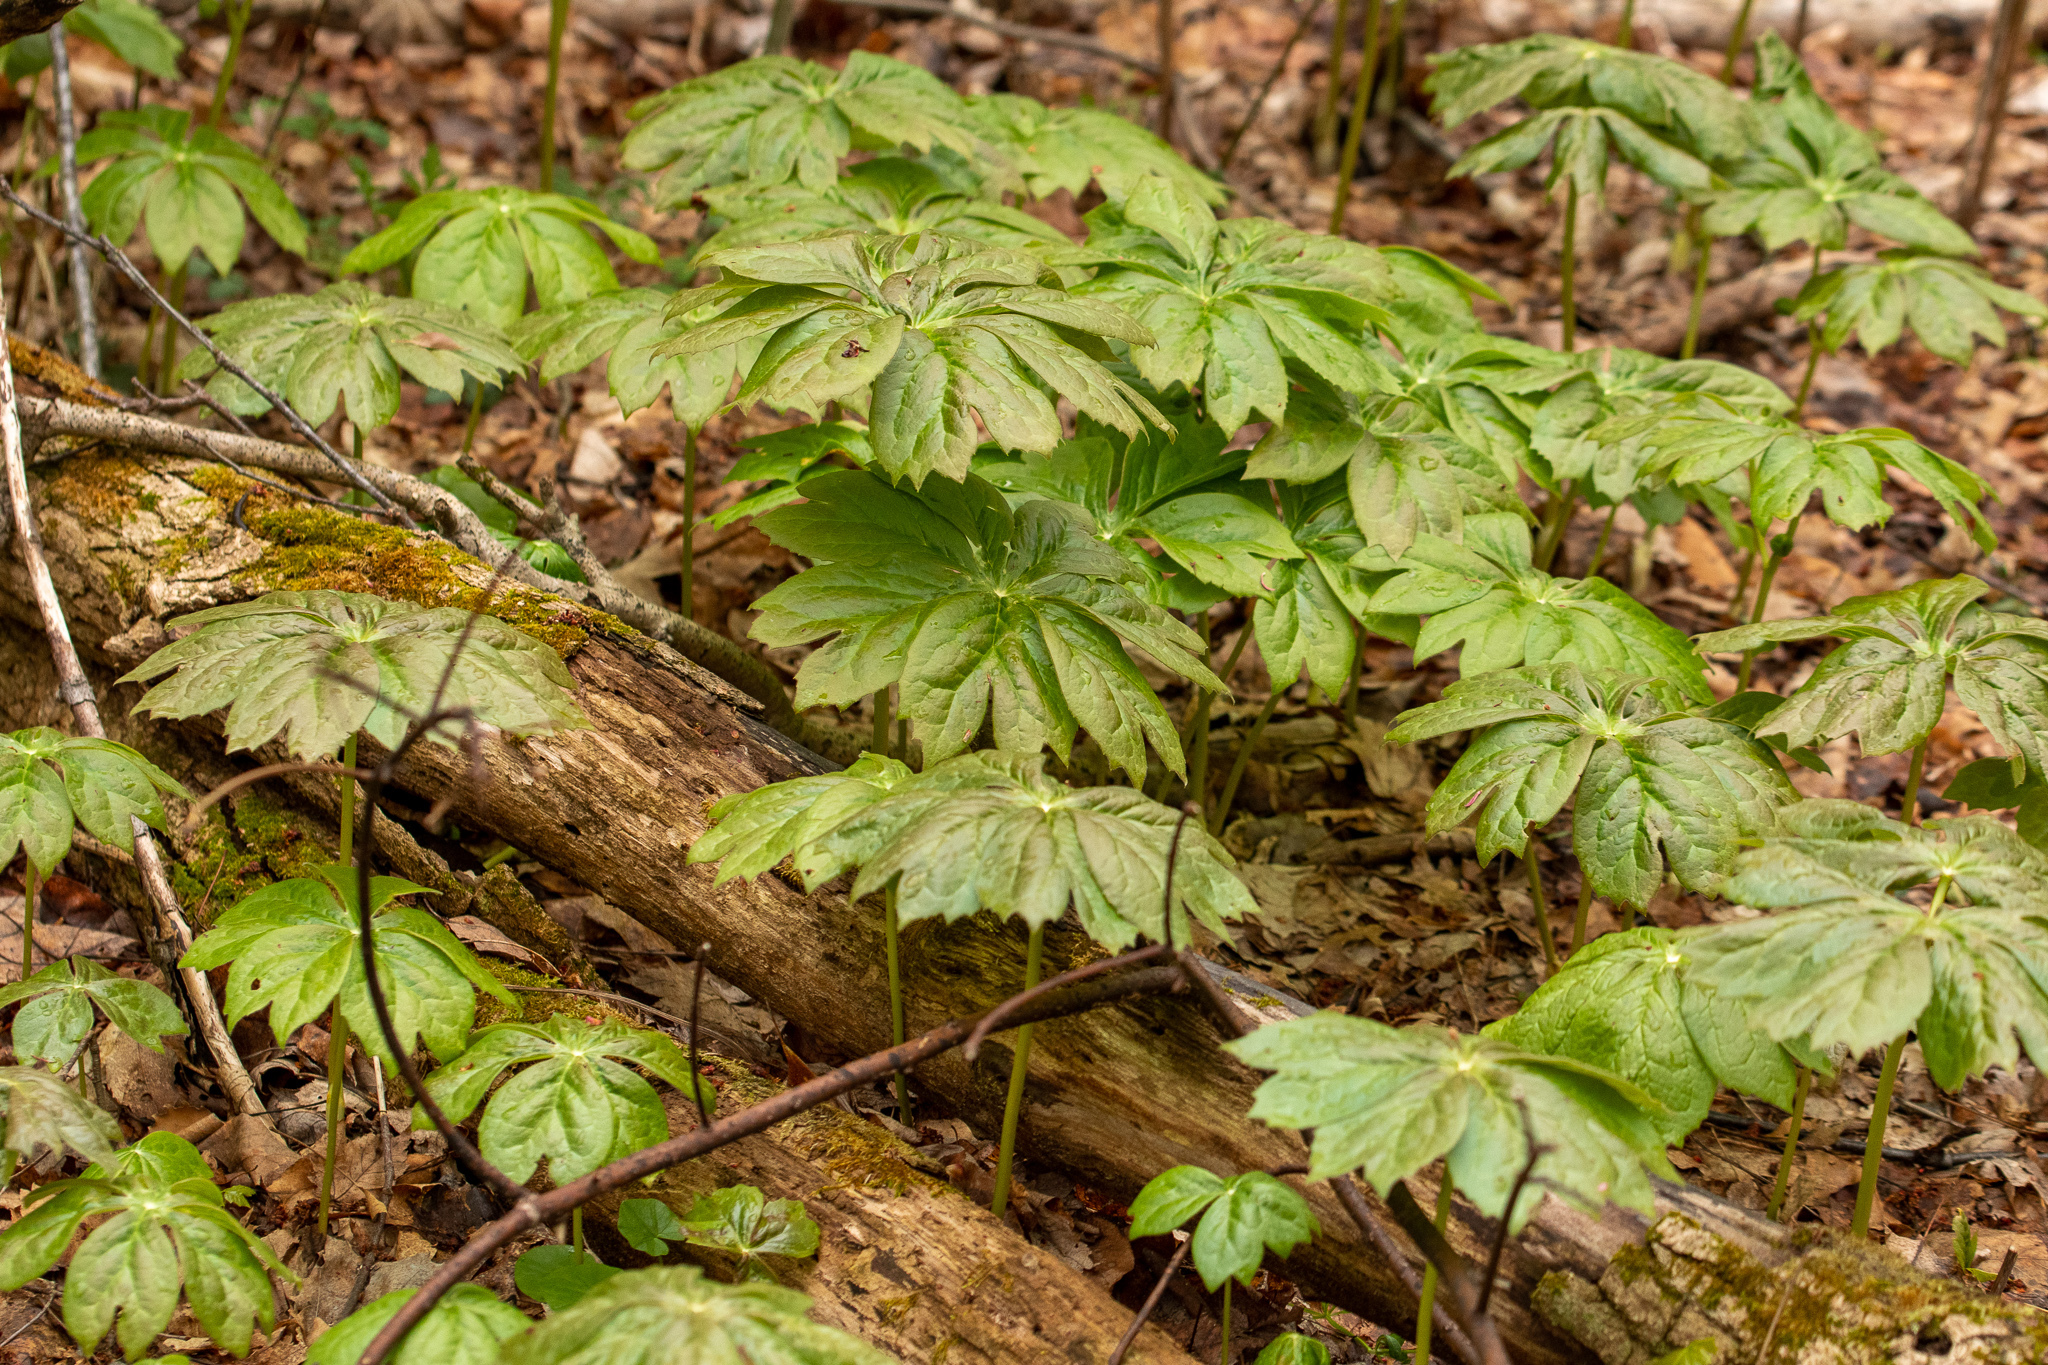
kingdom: Plantae
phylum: Tracheophyta
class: Magnoliopsida
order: Ranunculales
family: Berberidaceae
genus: Podophyllum
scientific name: Podophyllum peltatum
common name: Wild mandrake
